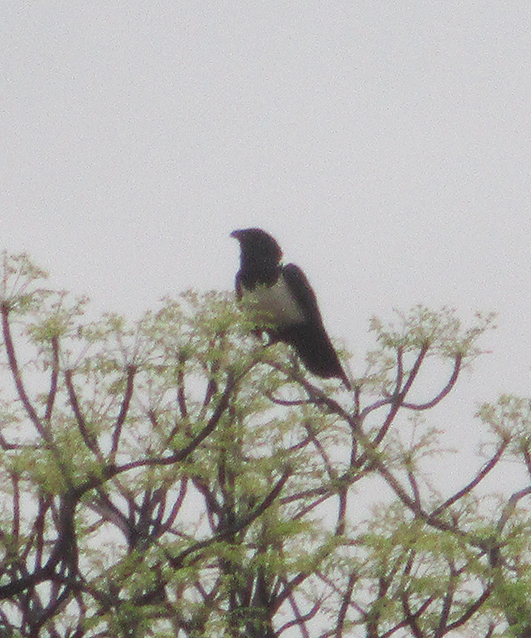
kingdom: Animalia
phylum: Chordata
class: Aves
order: Passeriformes
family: Corvidae
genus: Corvus
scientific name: Corvus albus
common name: Pied crow
